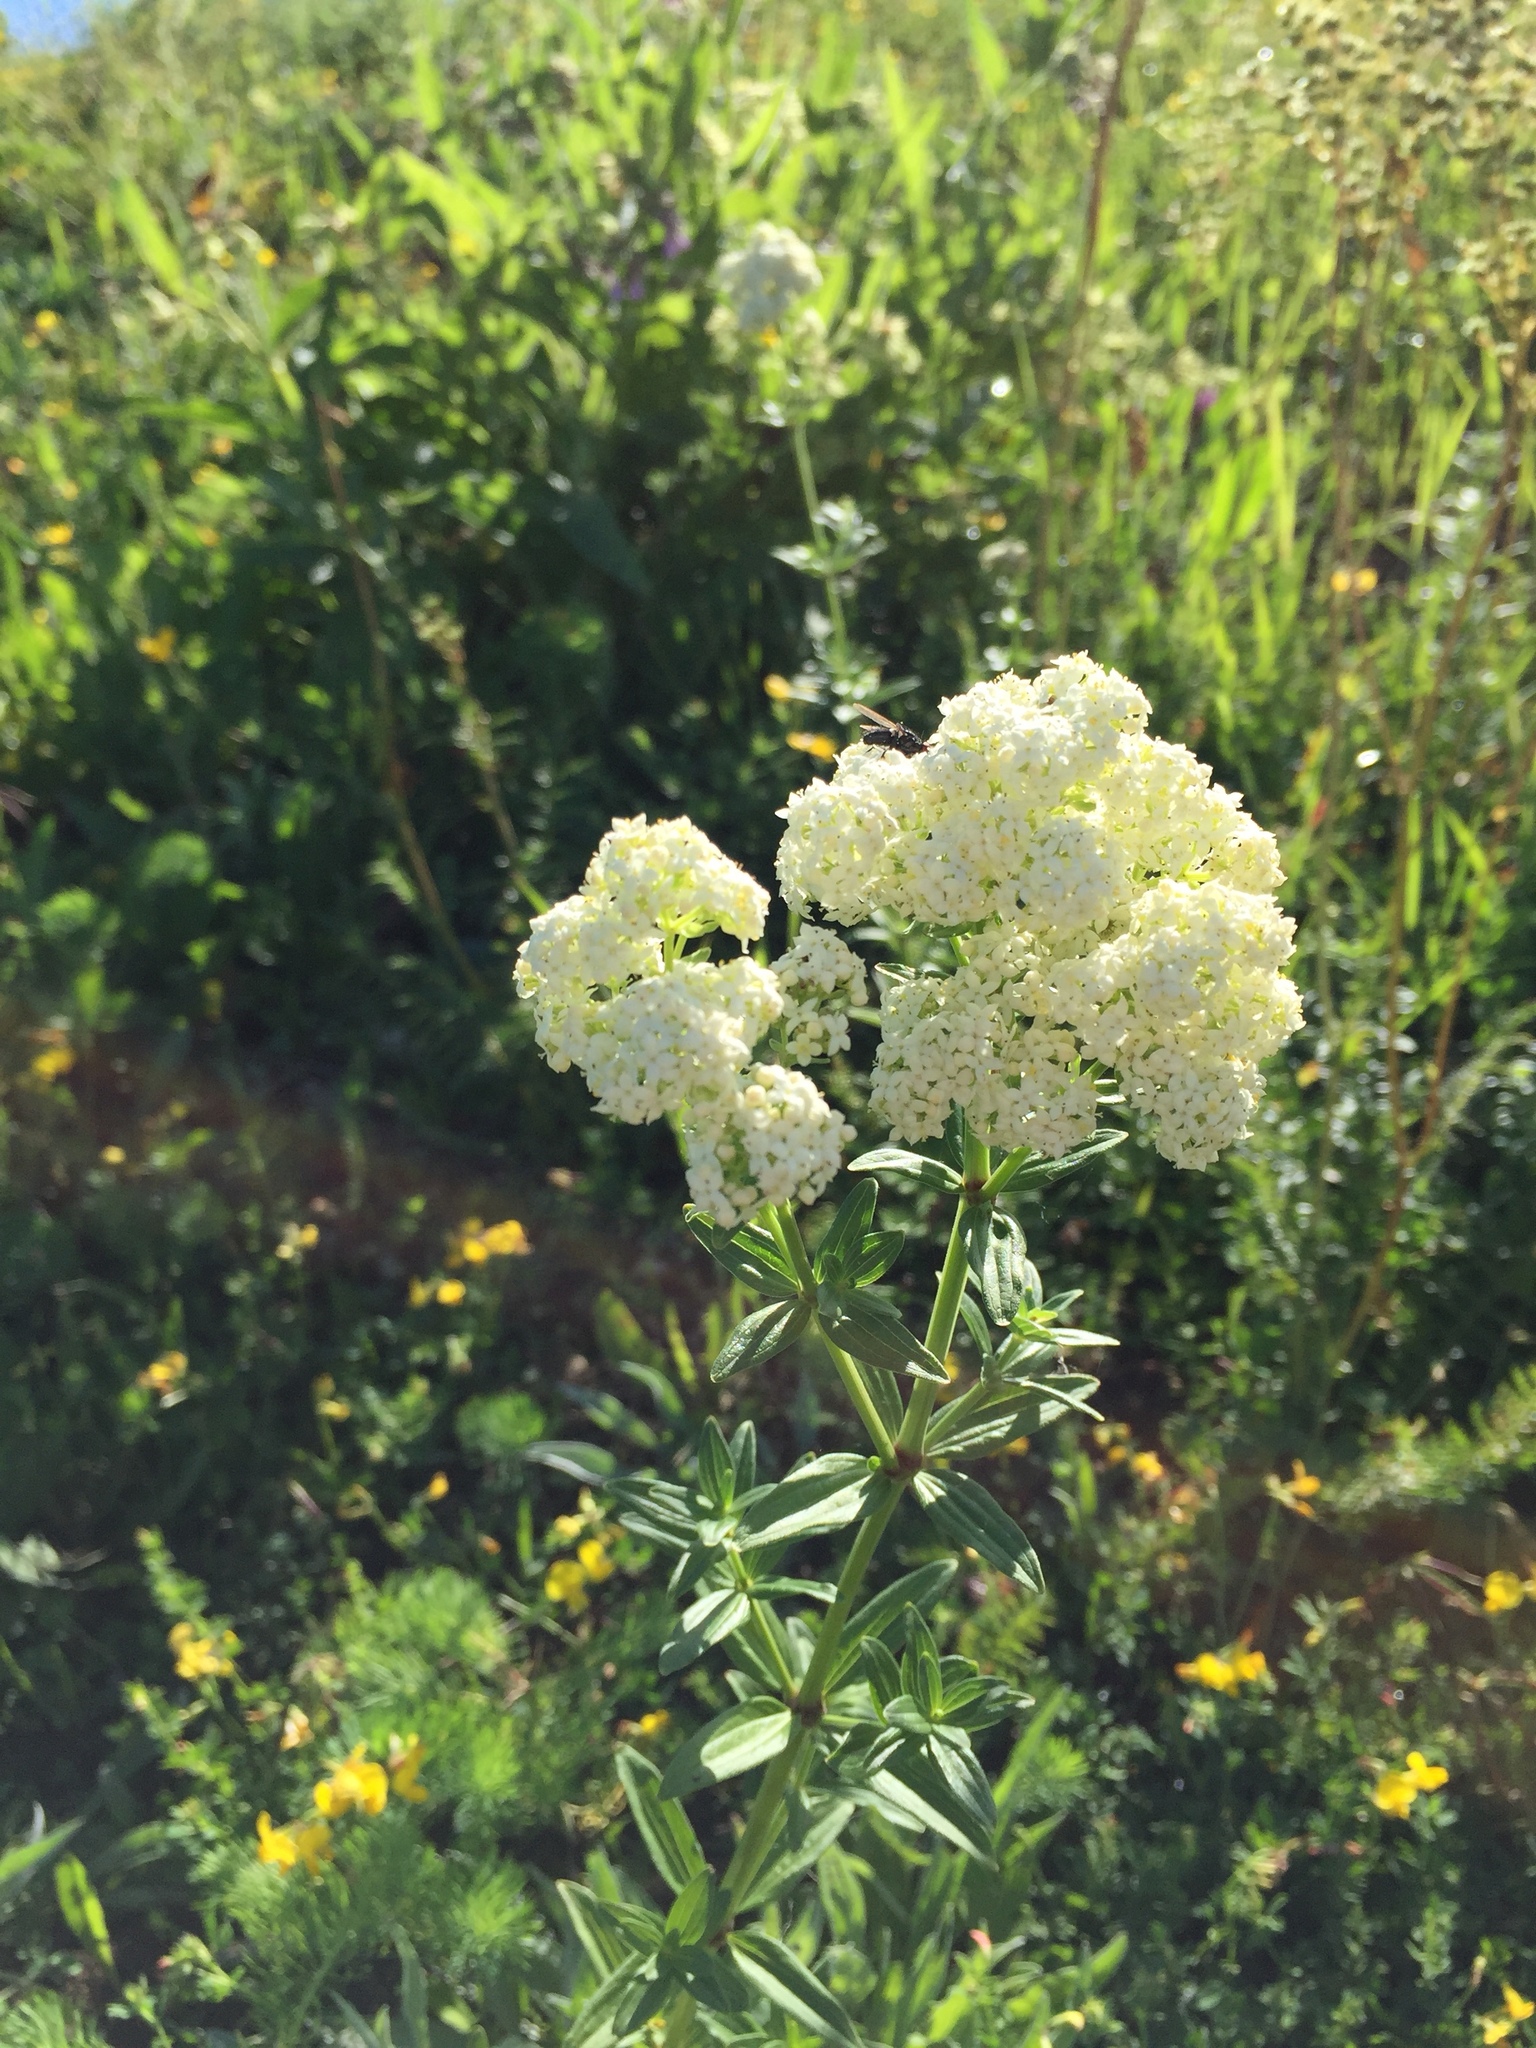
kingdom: Plantae
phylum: Tracheophyta
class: Magnoliopsida
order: Gentianales
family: Rubiaceae
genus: Galium
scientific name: Galium boreale
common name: Northern bedstraw
